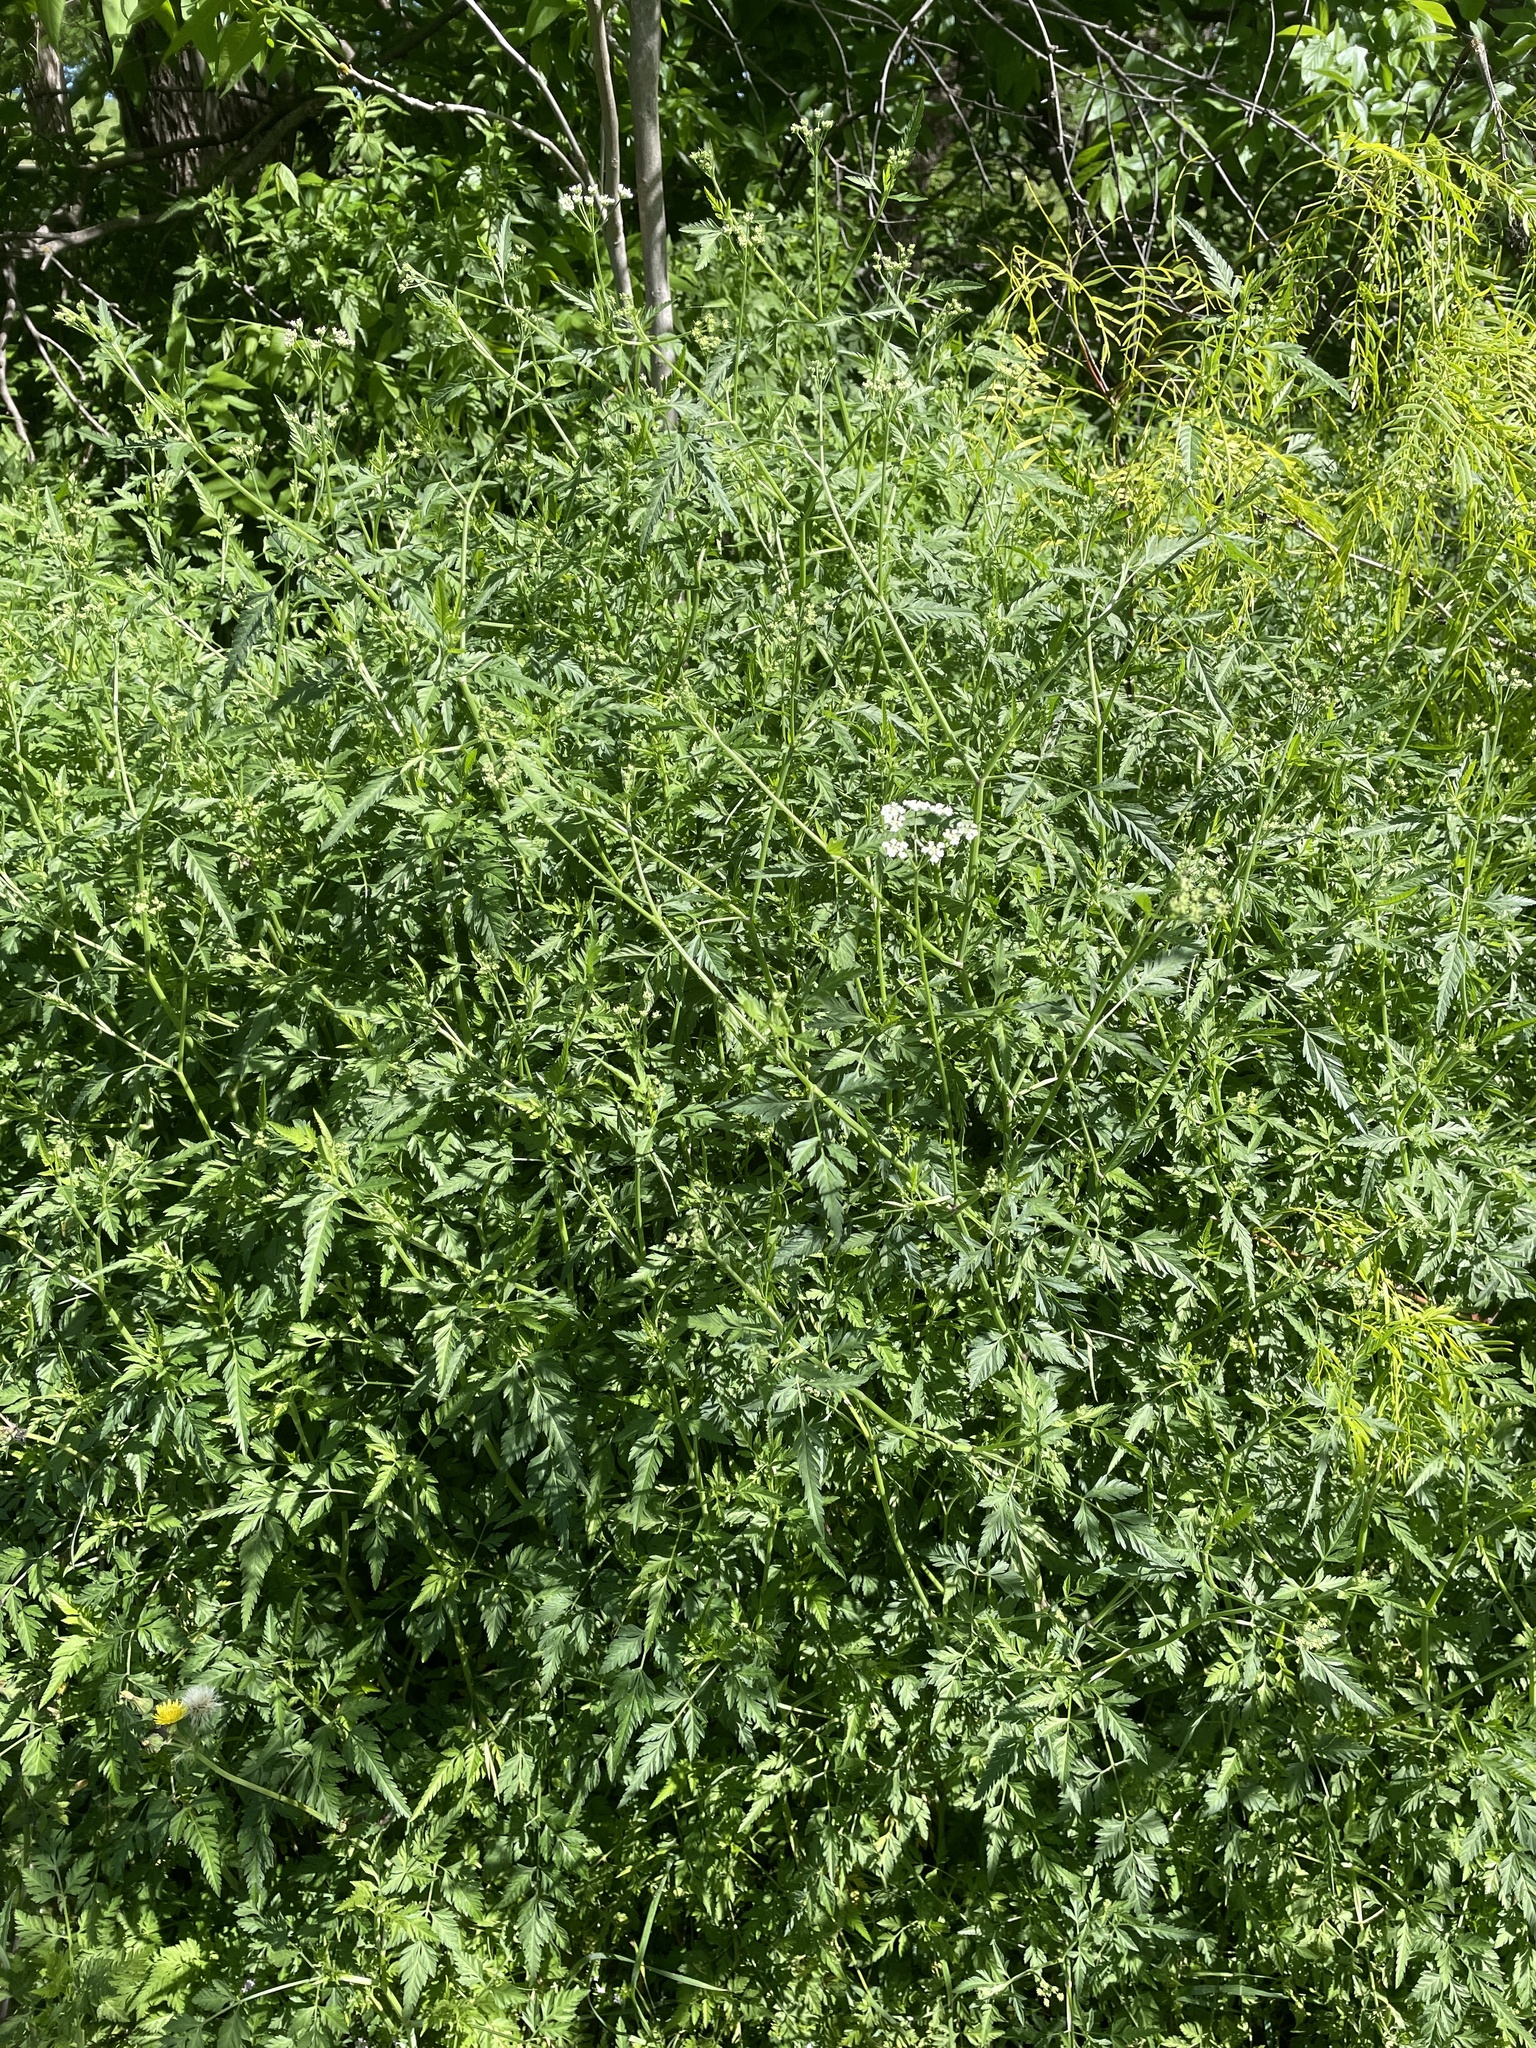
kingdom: Plantae
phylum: Tracheophyta
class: Magnoliopsida
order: Apiales
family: Apiaceae
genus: Torilis
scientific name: Torilis arvensis
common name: Spreading hedge-parsley
